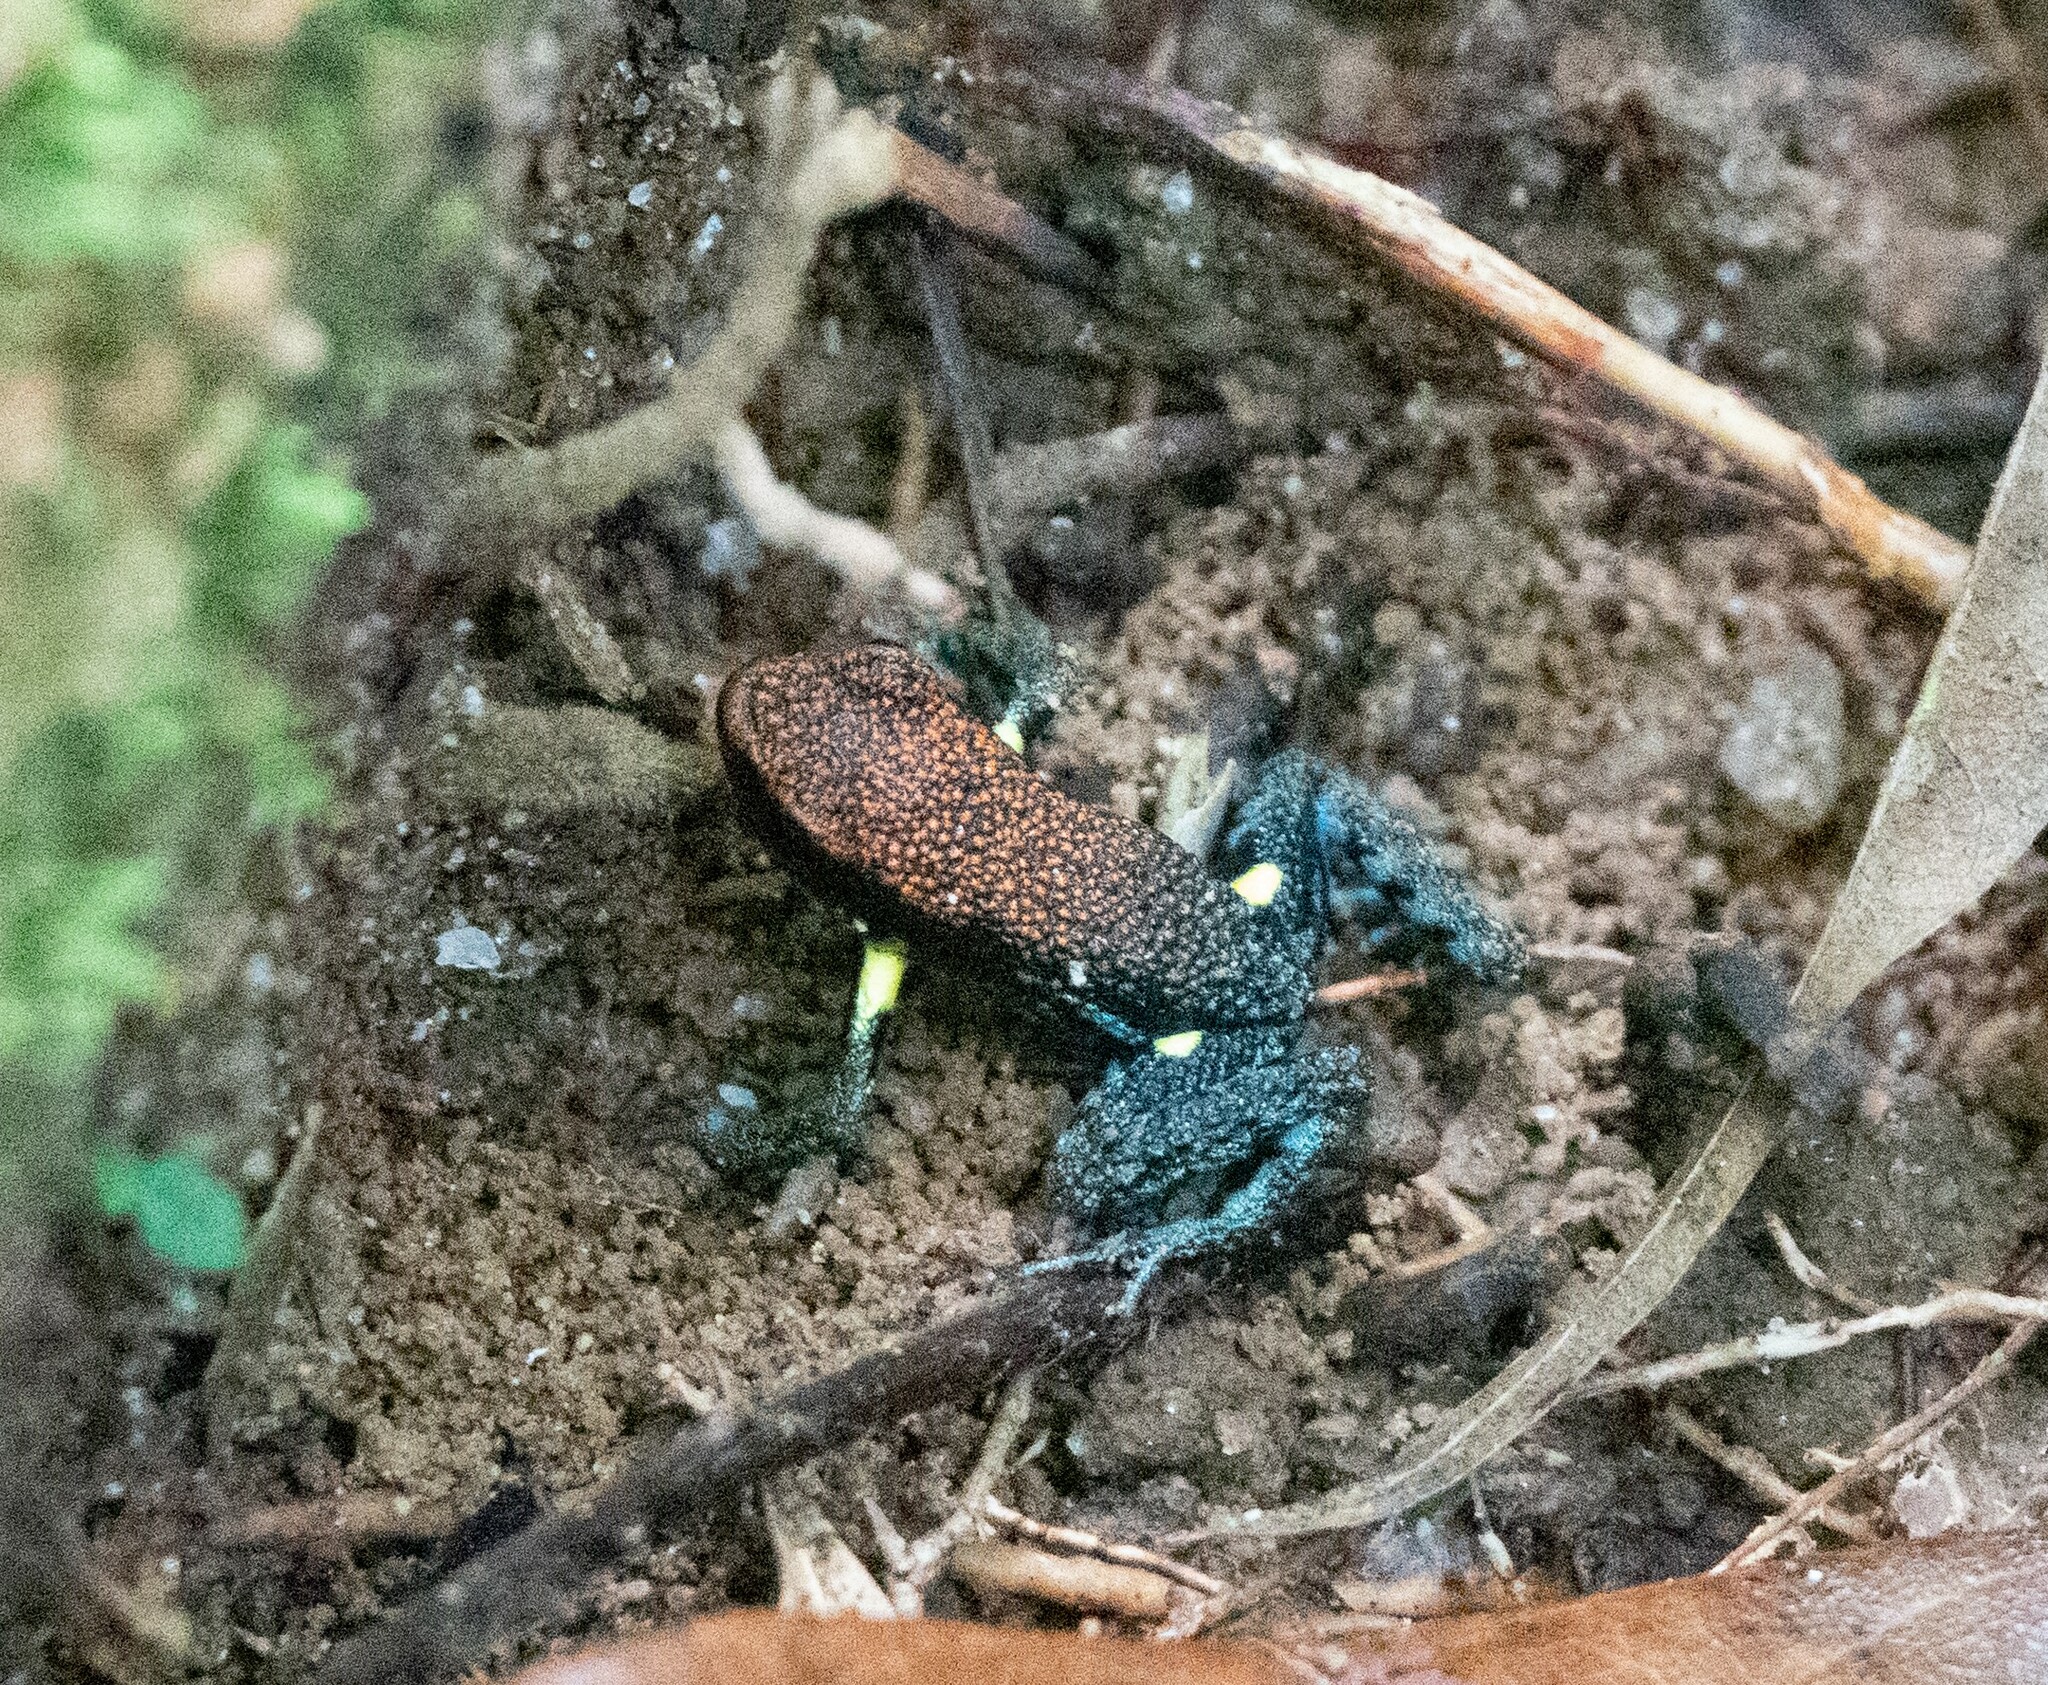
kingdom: Animalia
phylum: Chordata
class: Amphibia
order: Anura
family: Dendrobatidae
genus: Ameerega
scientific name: Ameerega bilinguis
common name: Ecuadorean poison frog
